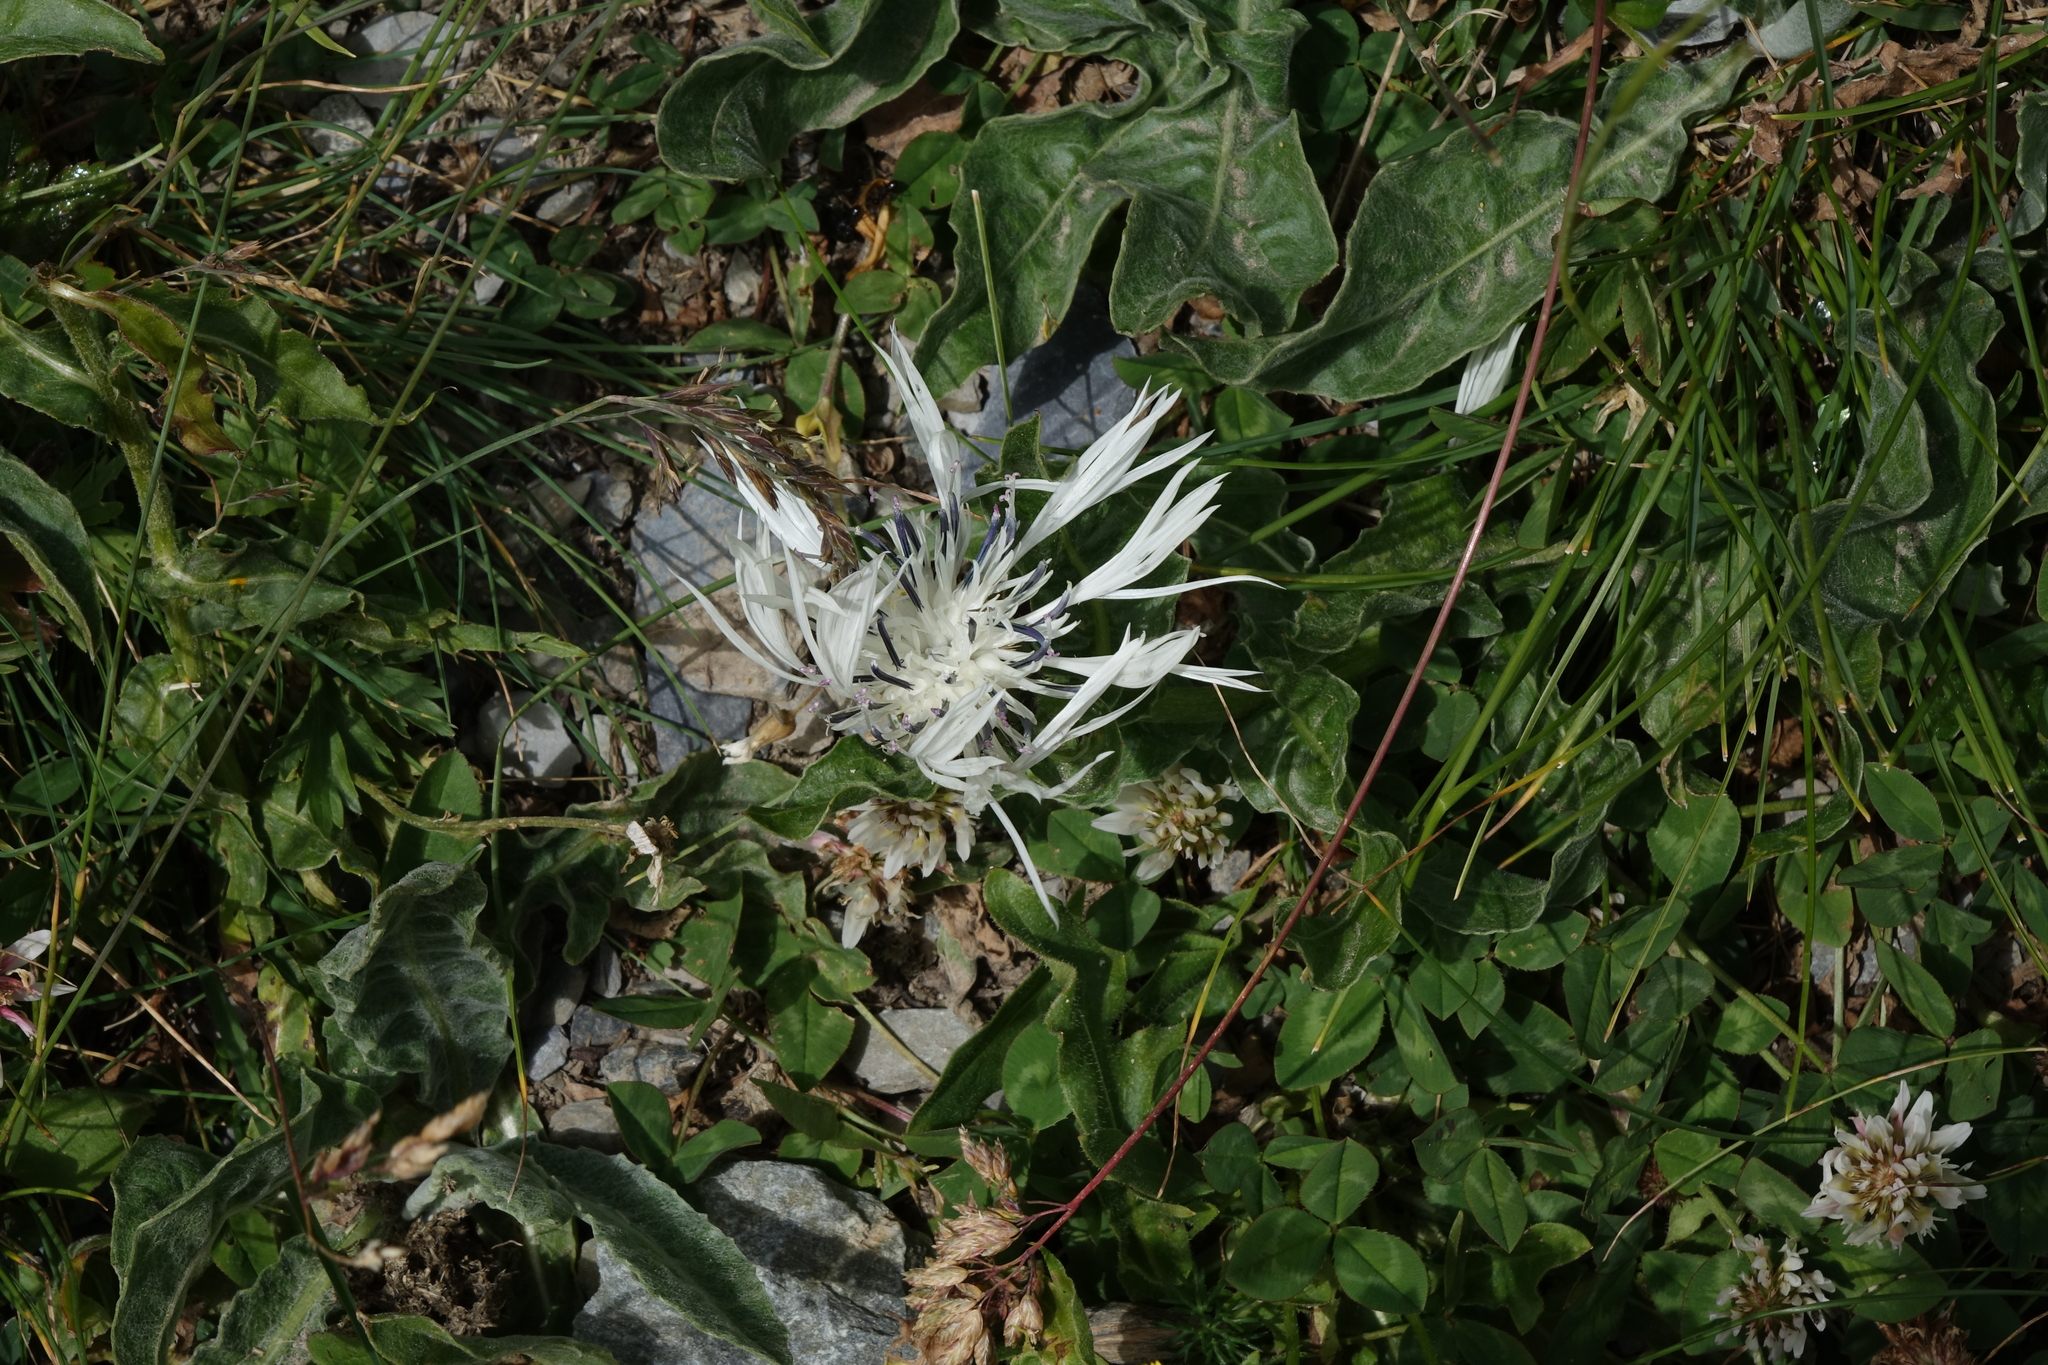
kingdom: Plantae
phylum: Tracheophyta
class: Magnoliopsida
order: Asterales
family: Asteraceae
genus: Centaurea
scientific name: Centaurea cheiranthifolia
